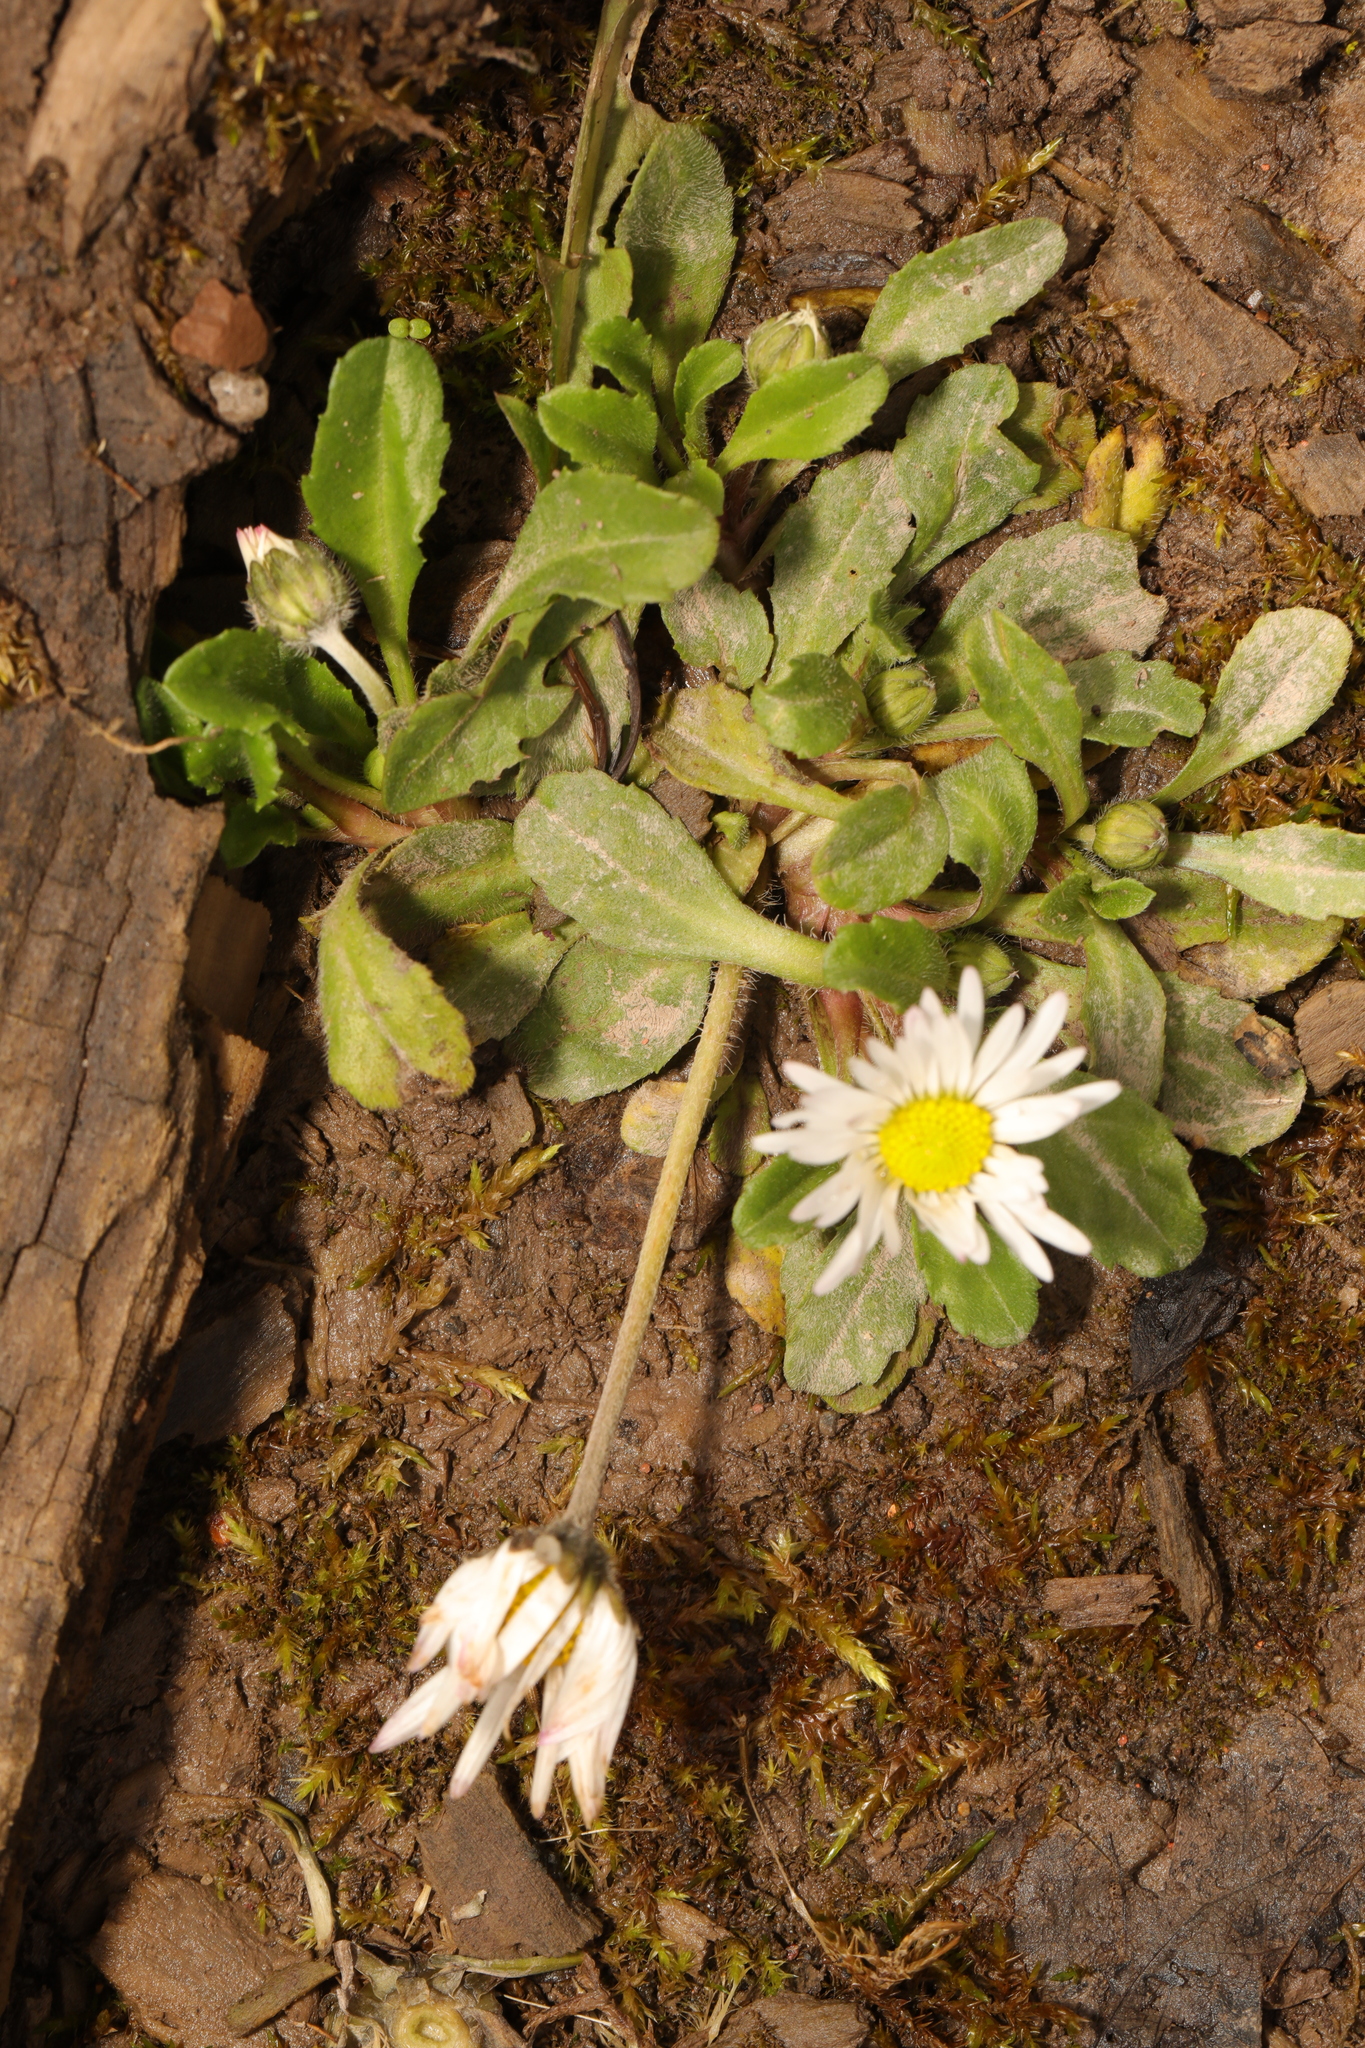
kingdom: Plantae
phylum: Tracheophyta
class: Magnoliopsida
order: Asterales
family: Asteraceae
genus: Bellis
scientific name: Bellis perennis
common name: Lawndaisy
